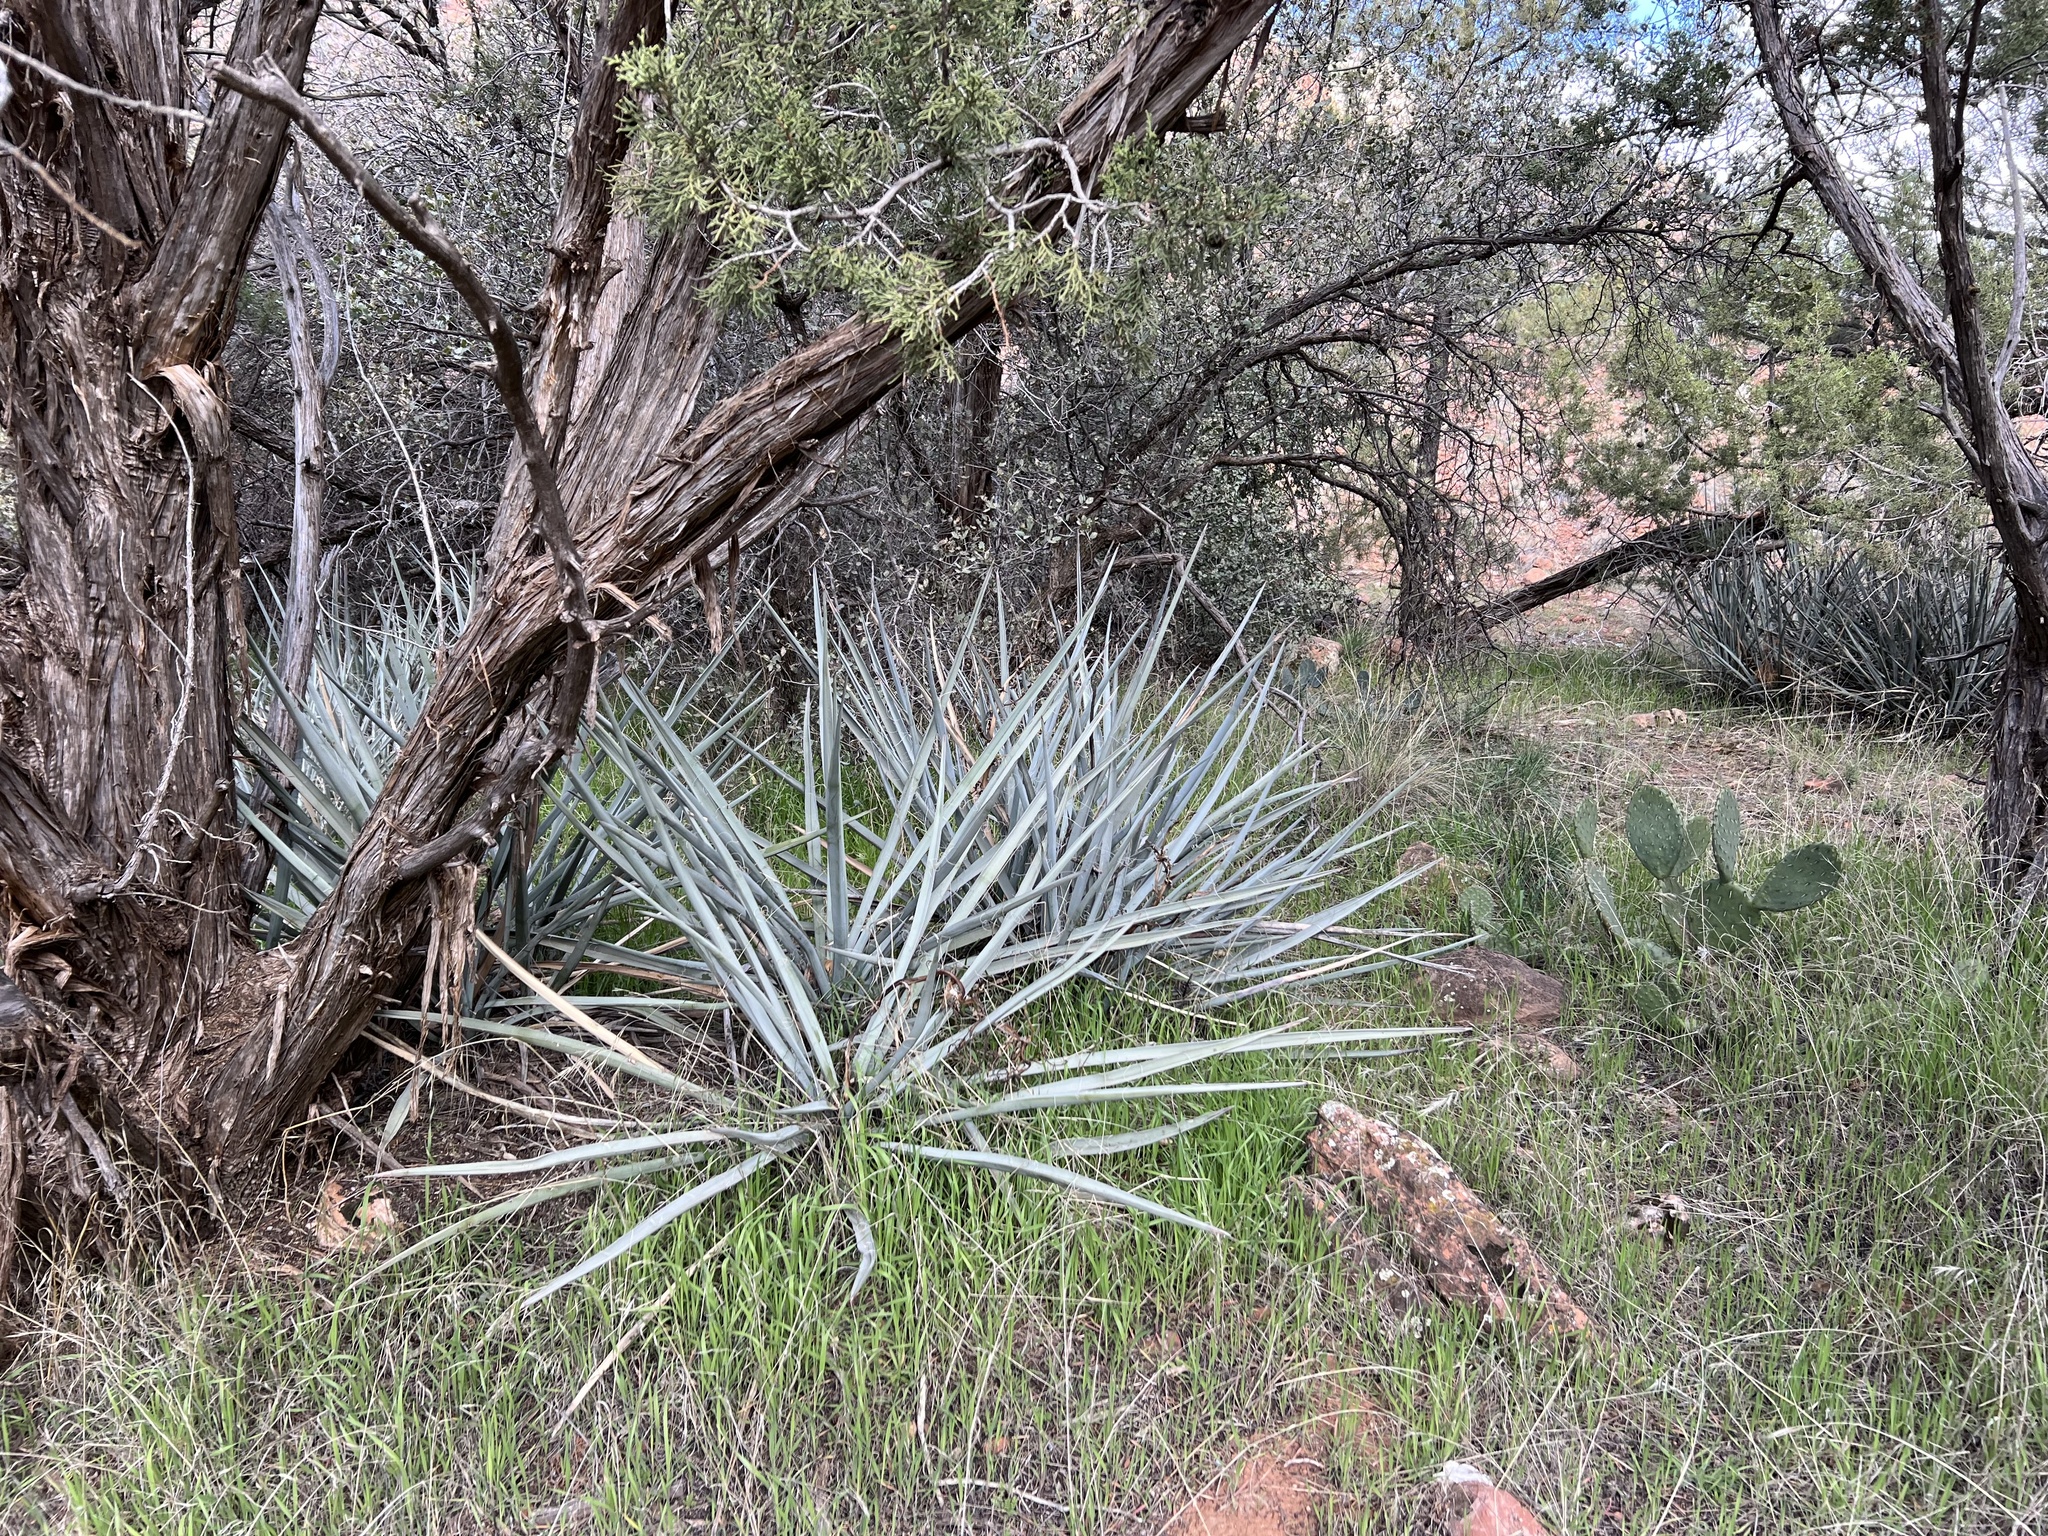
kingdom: Plantae
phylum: Tracheophyta
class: Liliopsida
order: Asparagales
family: Asparagaceae
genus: Yucca
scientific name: Yucca baccata
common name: Banana yucca
